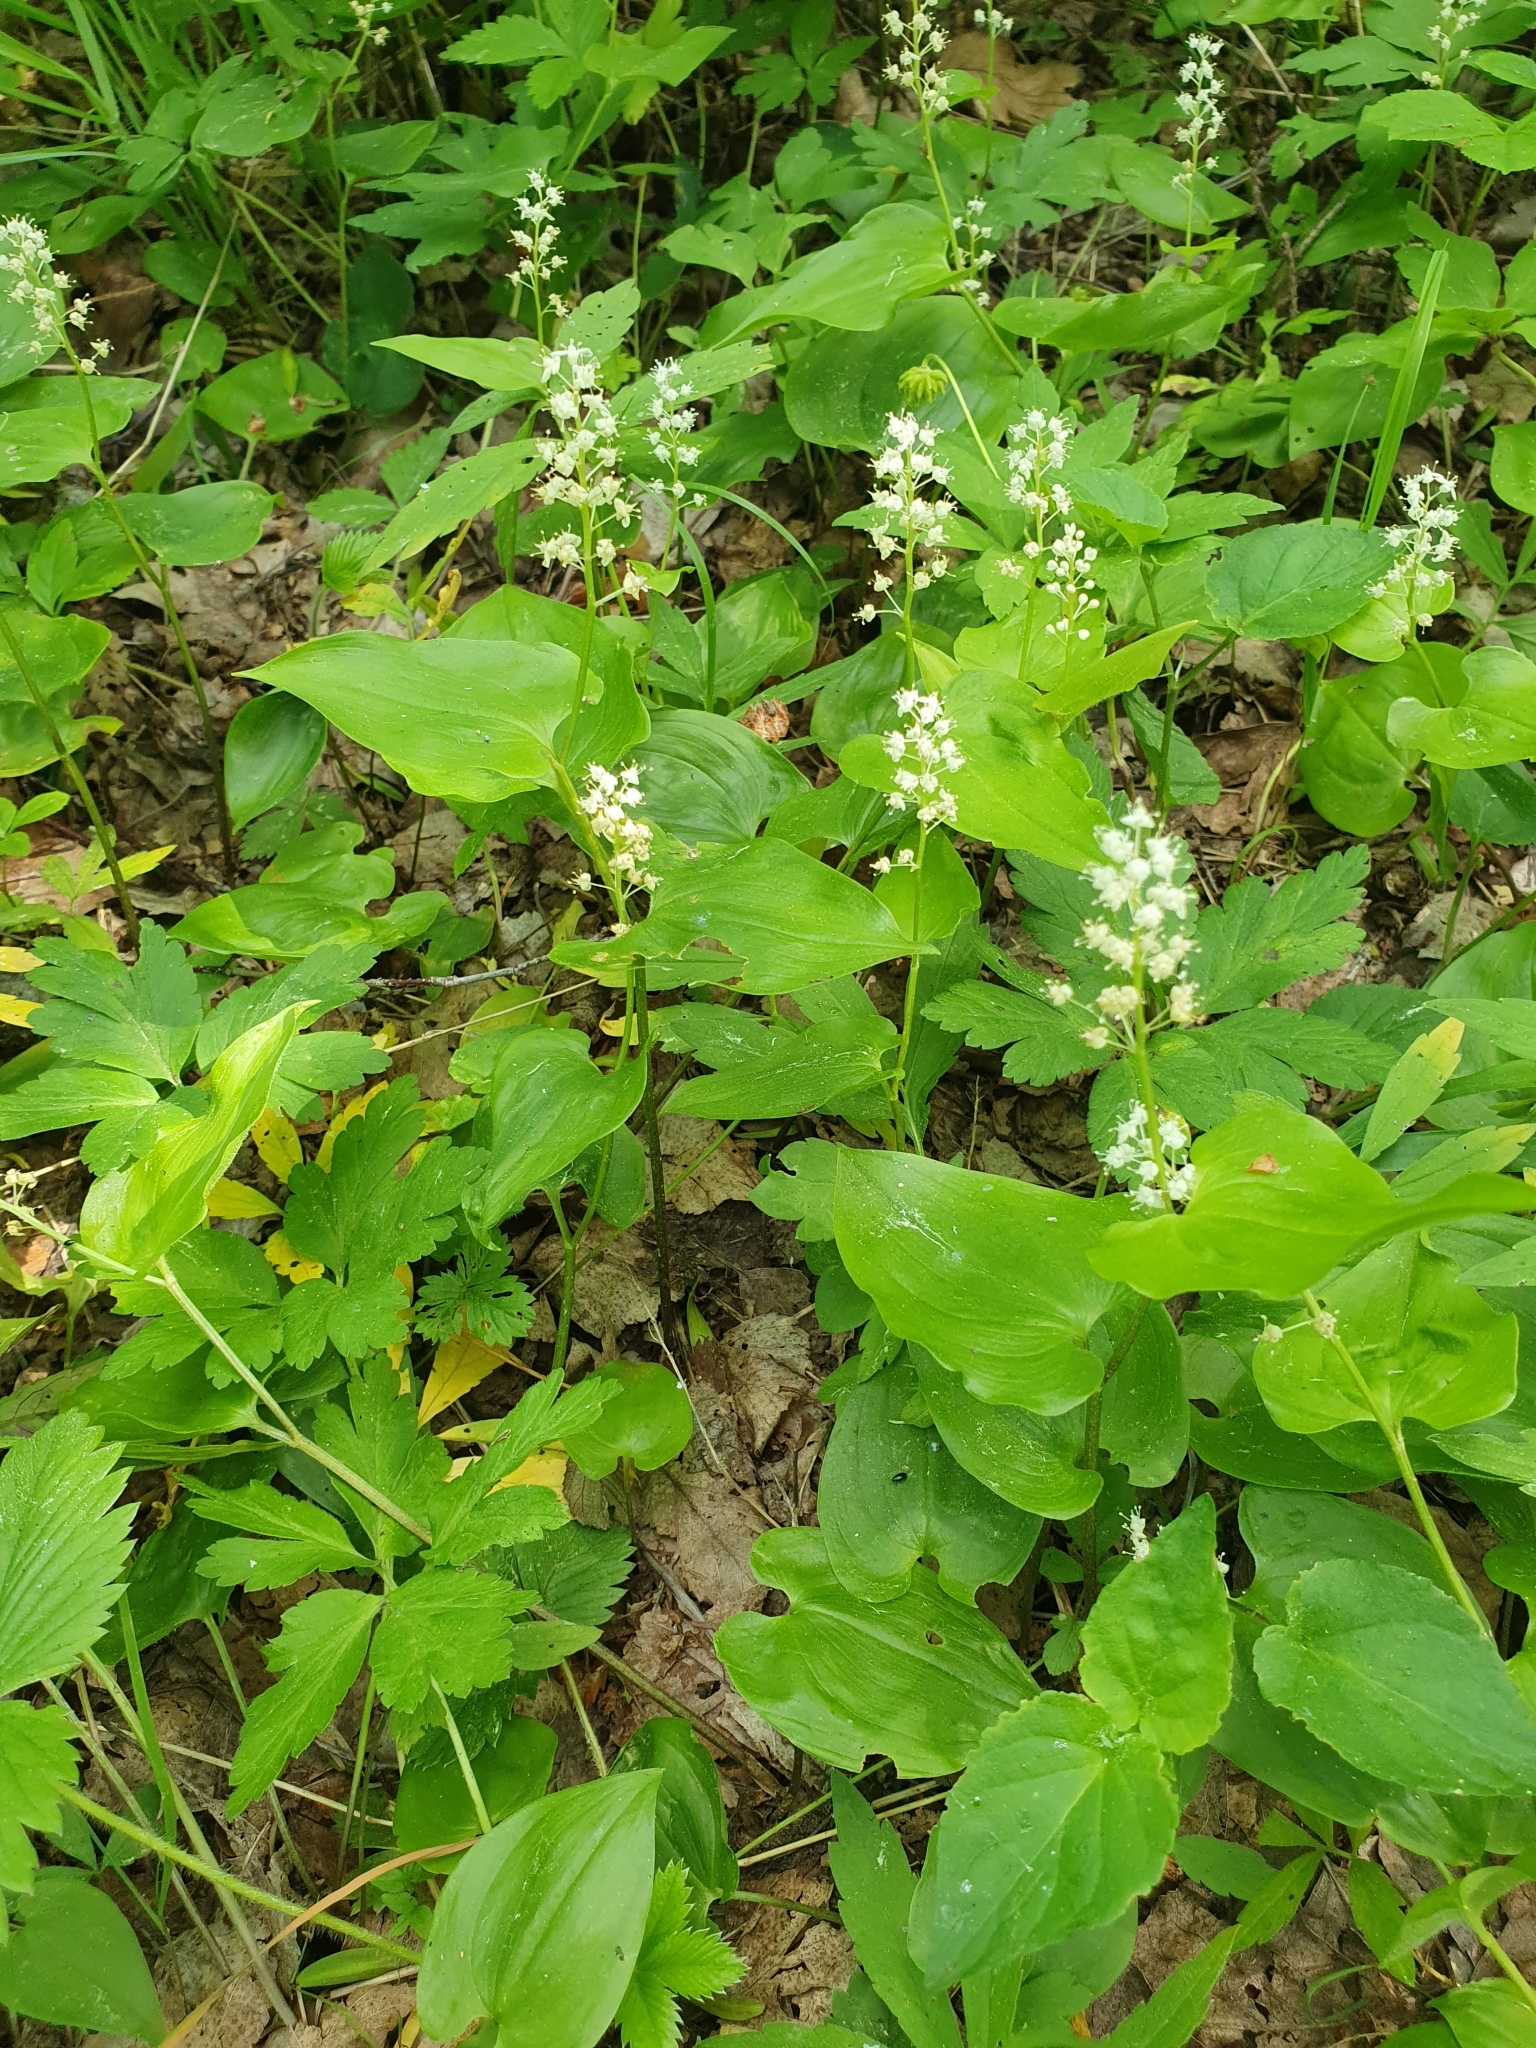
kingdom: Plantae
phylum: Tracheophyta
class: Liliopsida
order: Asparagales
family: Asparagaceae
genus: Maianthemum
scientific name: Maianthemum bifolium
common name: May lily
